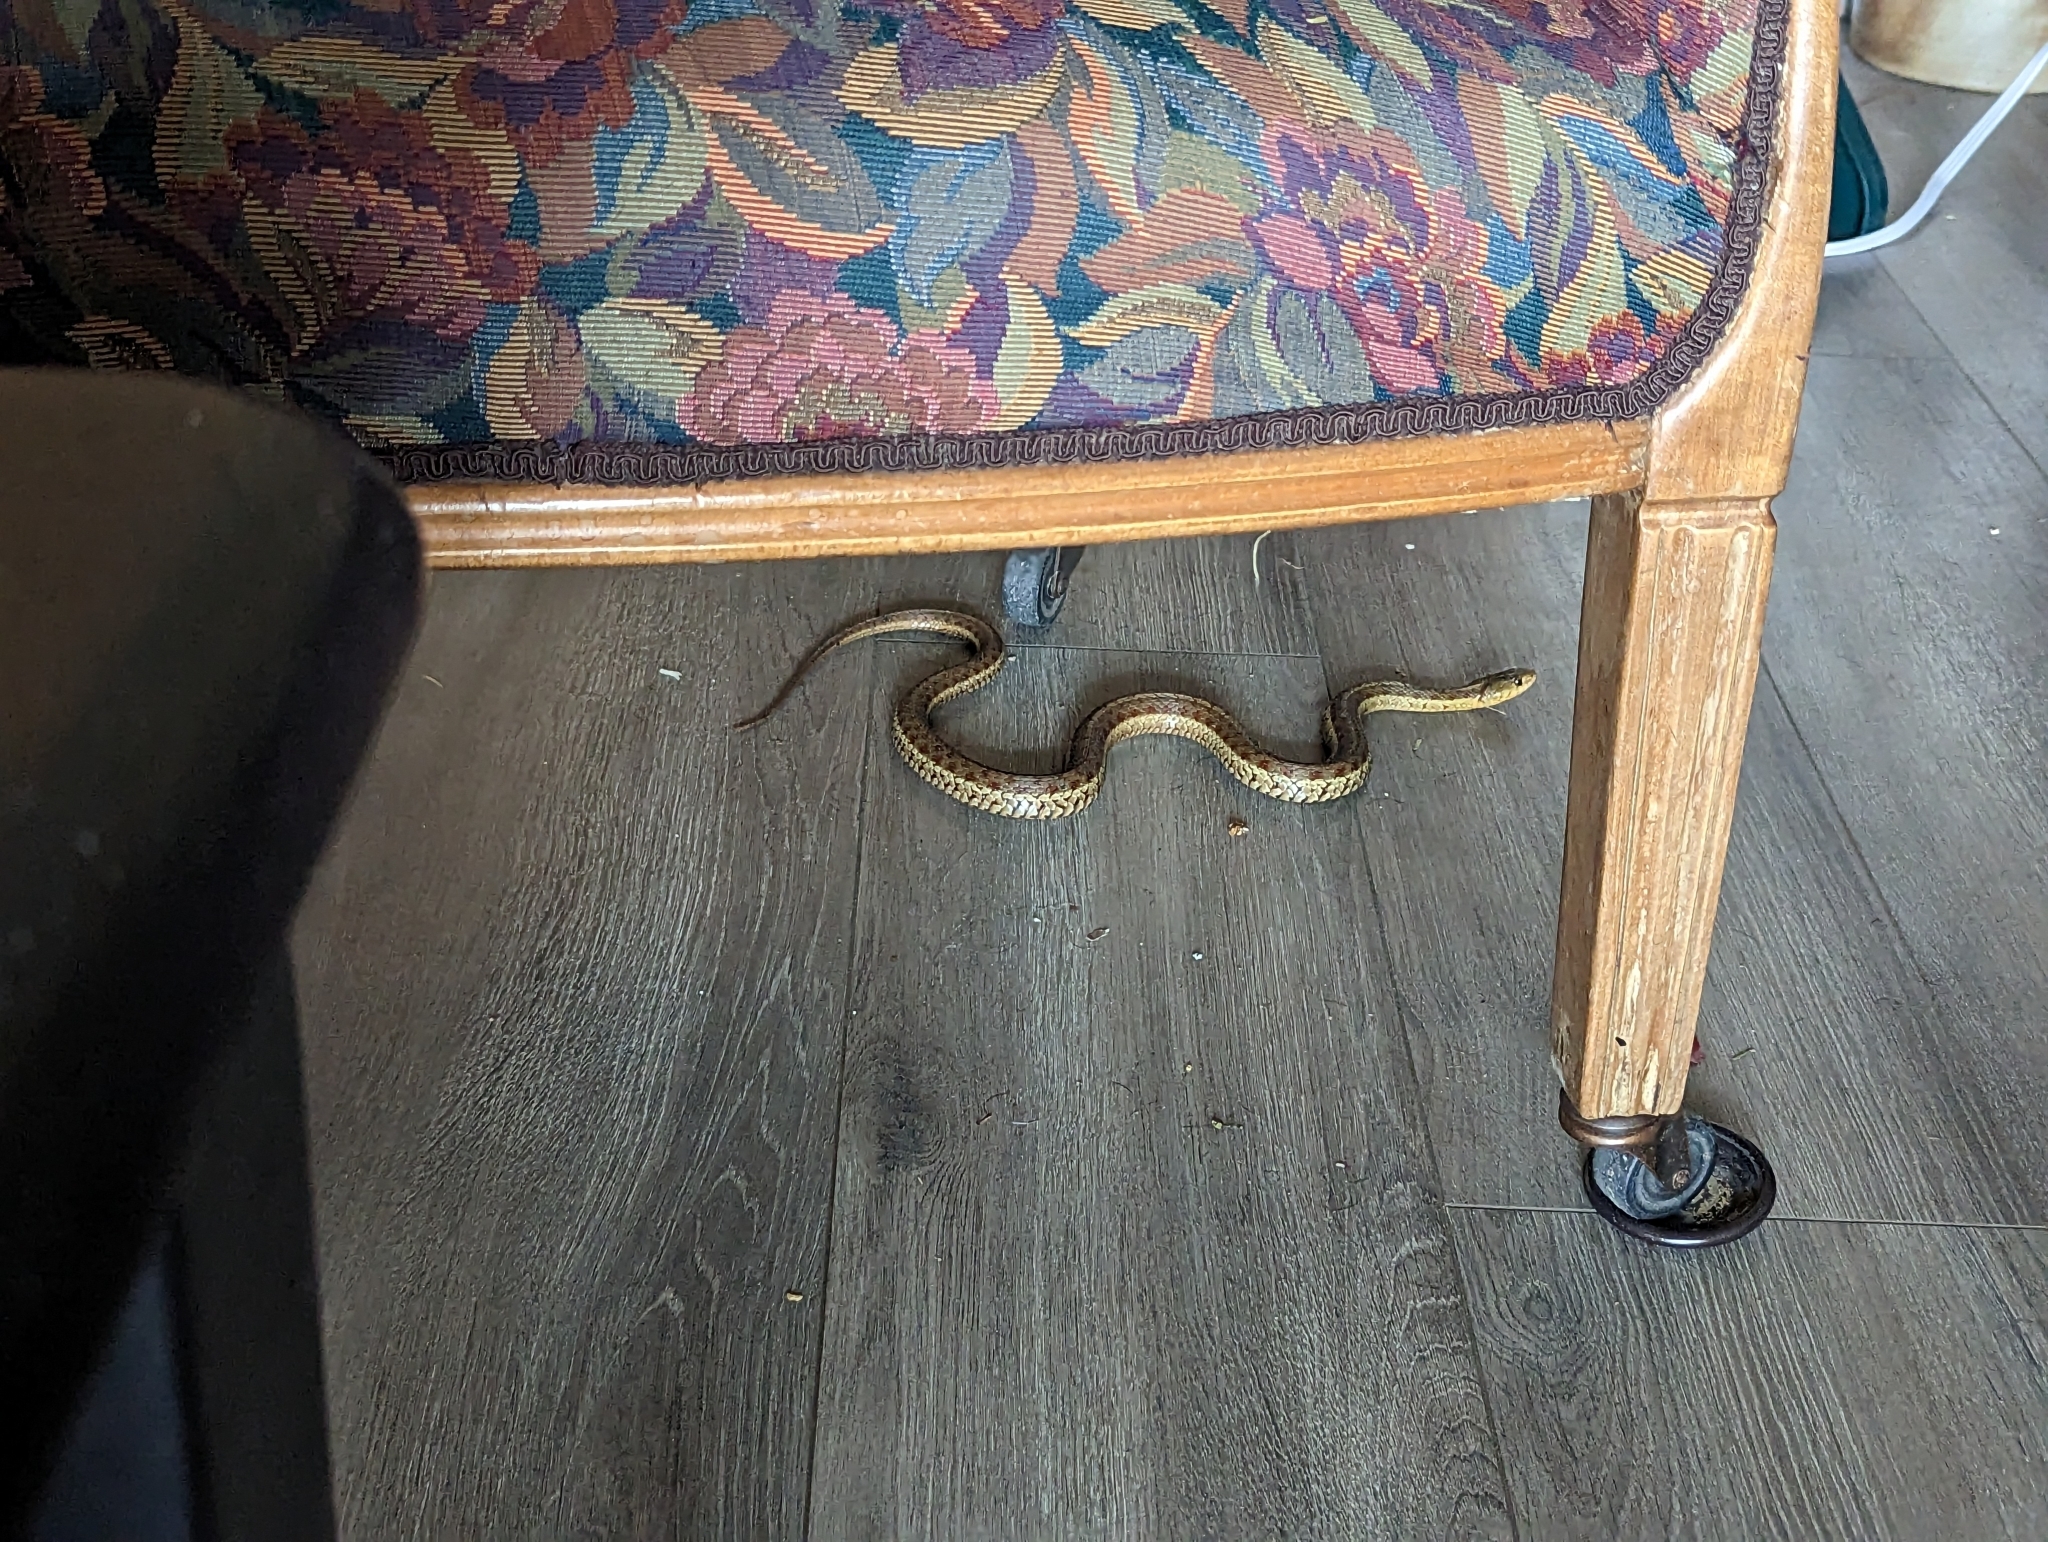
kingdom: Animalia
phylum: Chordata
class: Squamata
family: Colubridae
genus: Thamnophis
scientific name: Thamnophis sirtalis
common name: Common garter snake
